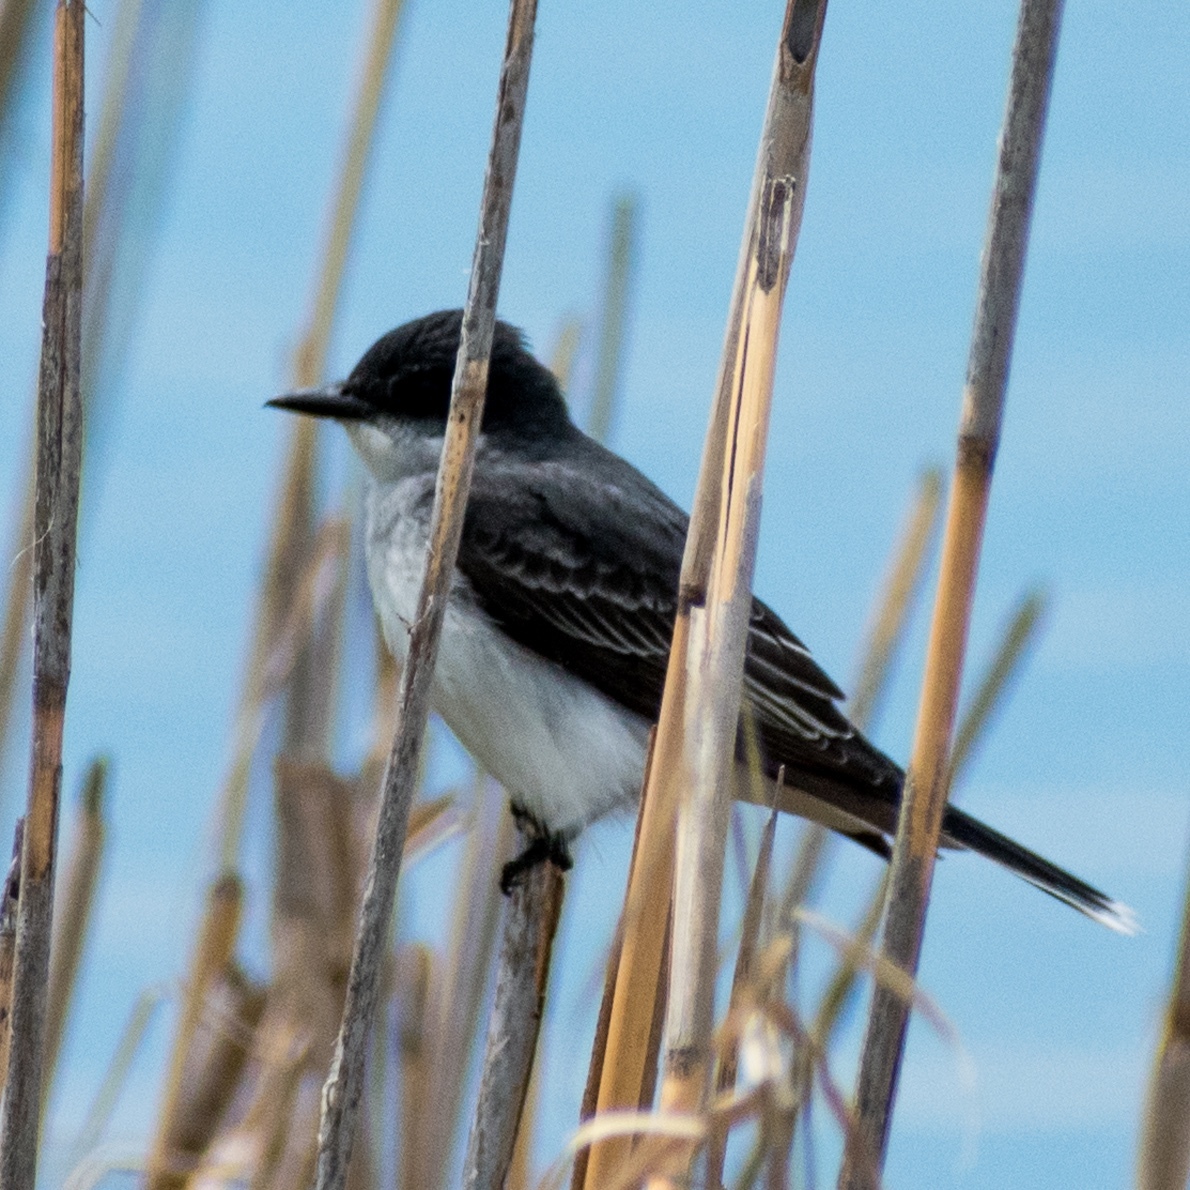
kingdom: Animalia
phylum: Chordata
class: Aves
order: Passeriformes
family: Tyrannidae
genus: Tyrannus
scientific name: Tyrannus tyrannus
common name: Eastern kingbird
